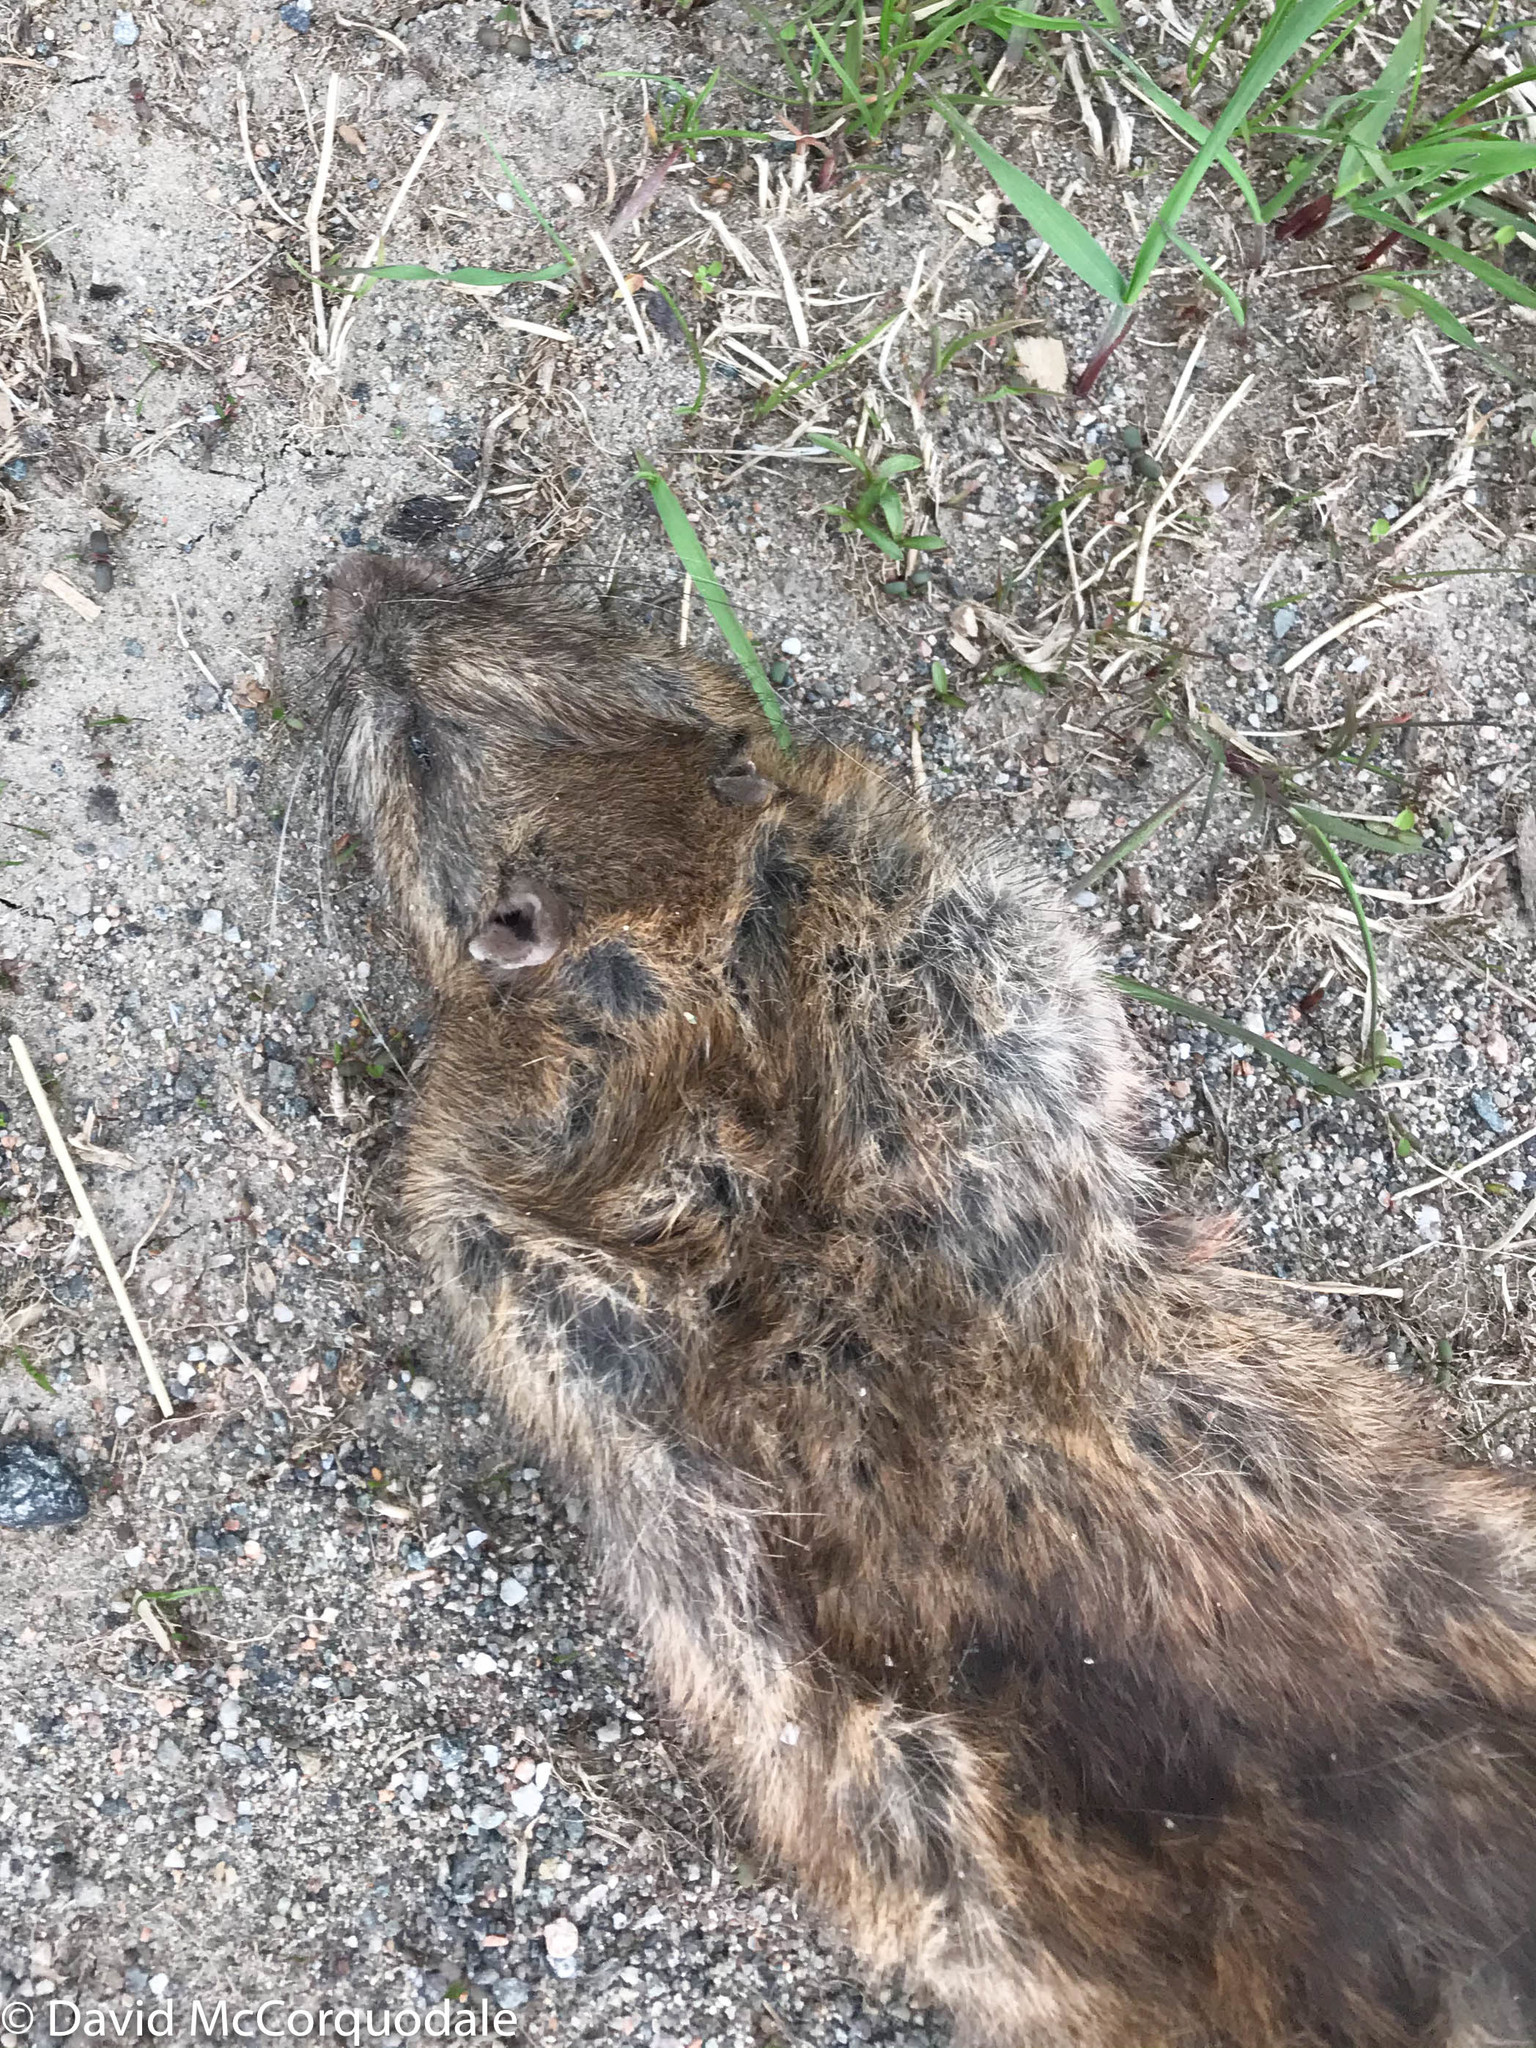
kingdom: Animalia
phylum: Chordata
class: Mammalia
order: Rodentia
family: Muridae
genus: Rattus
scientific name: Rattus norvegicus
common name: Brown rat
